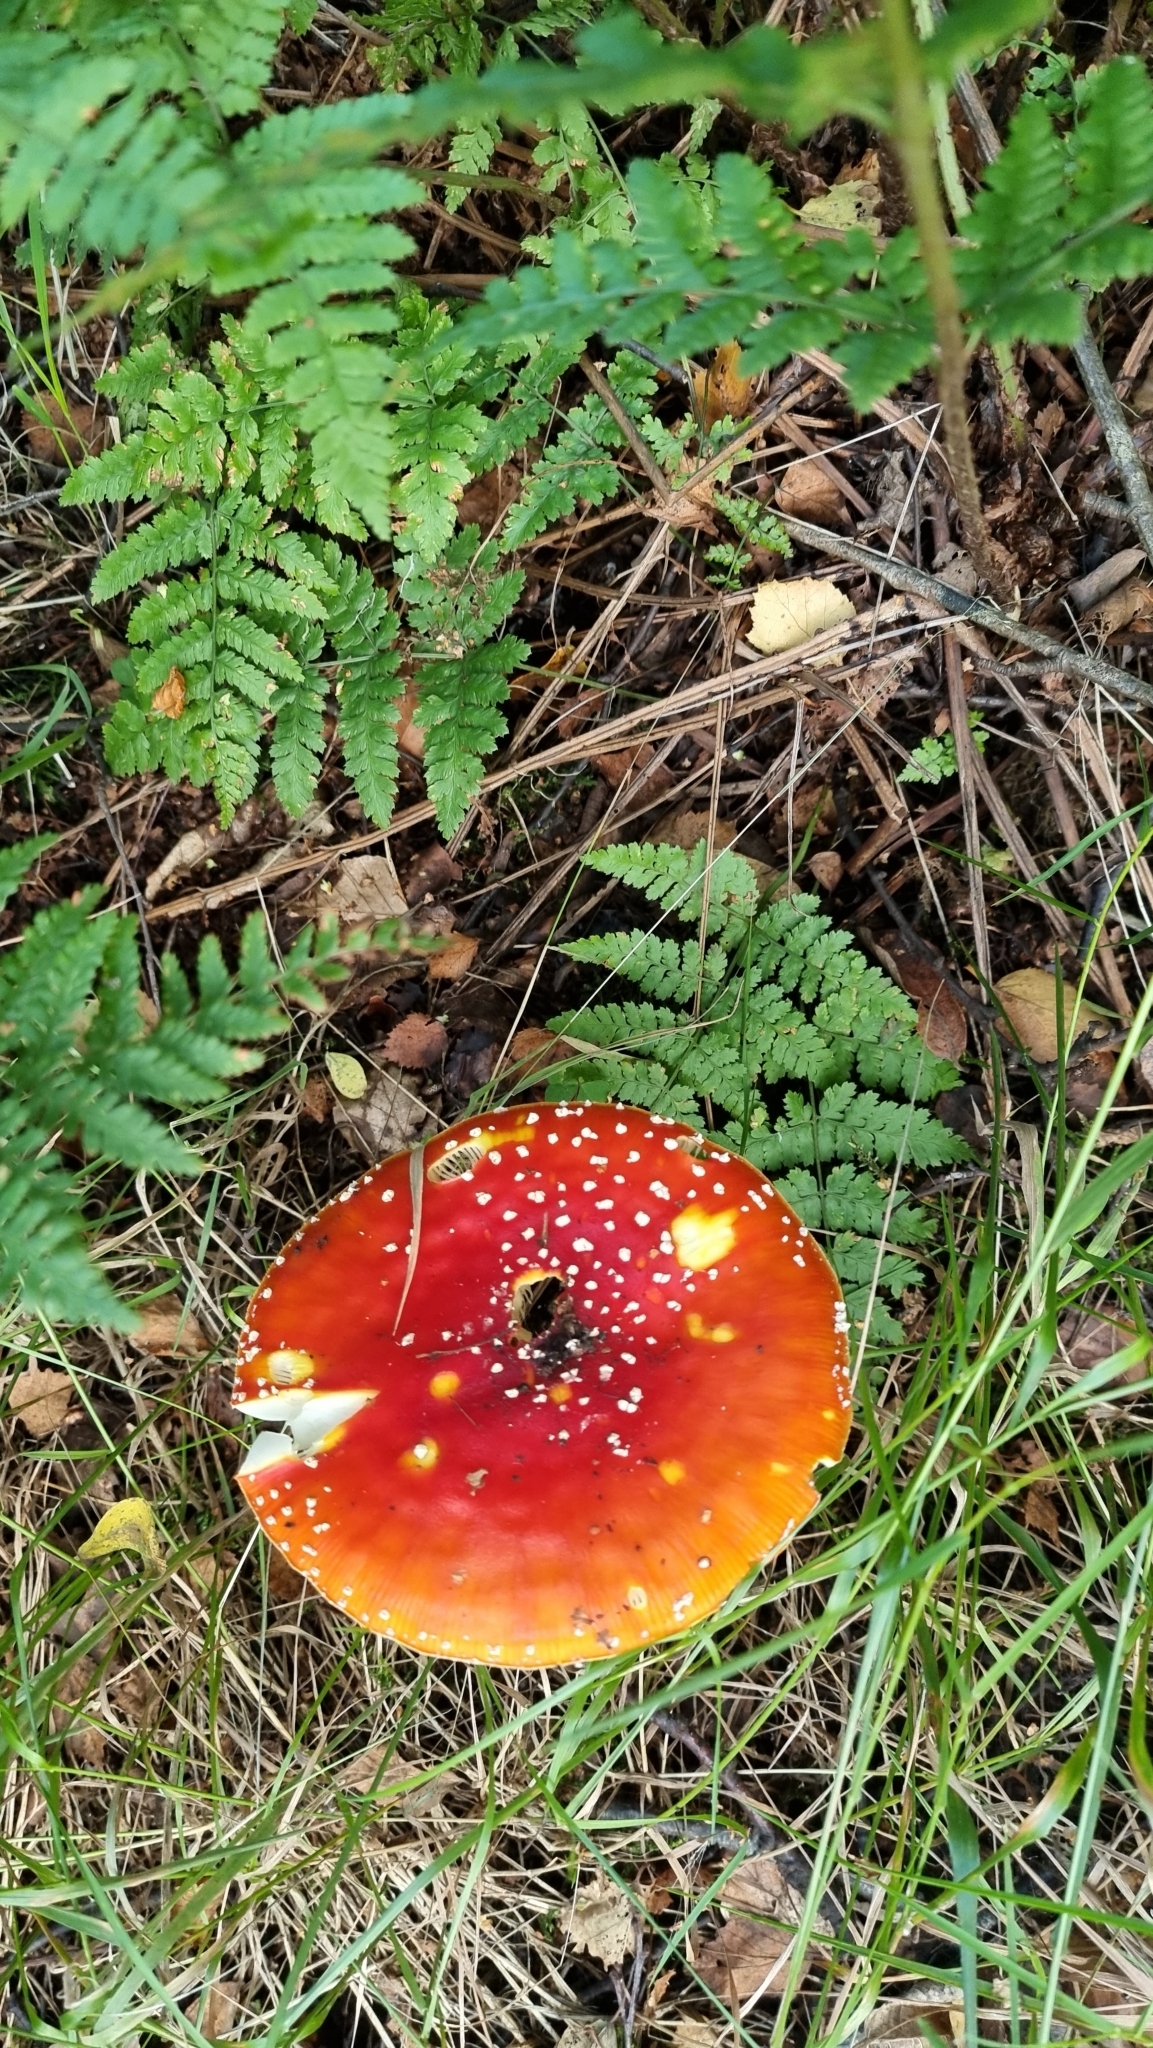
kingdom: Fungi
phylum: Basidiomycota
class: Agaricomycetes
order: Agaricales
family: Amanitaceae
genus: Amanita
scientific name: Amanita muscaria
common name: Fly agaric
